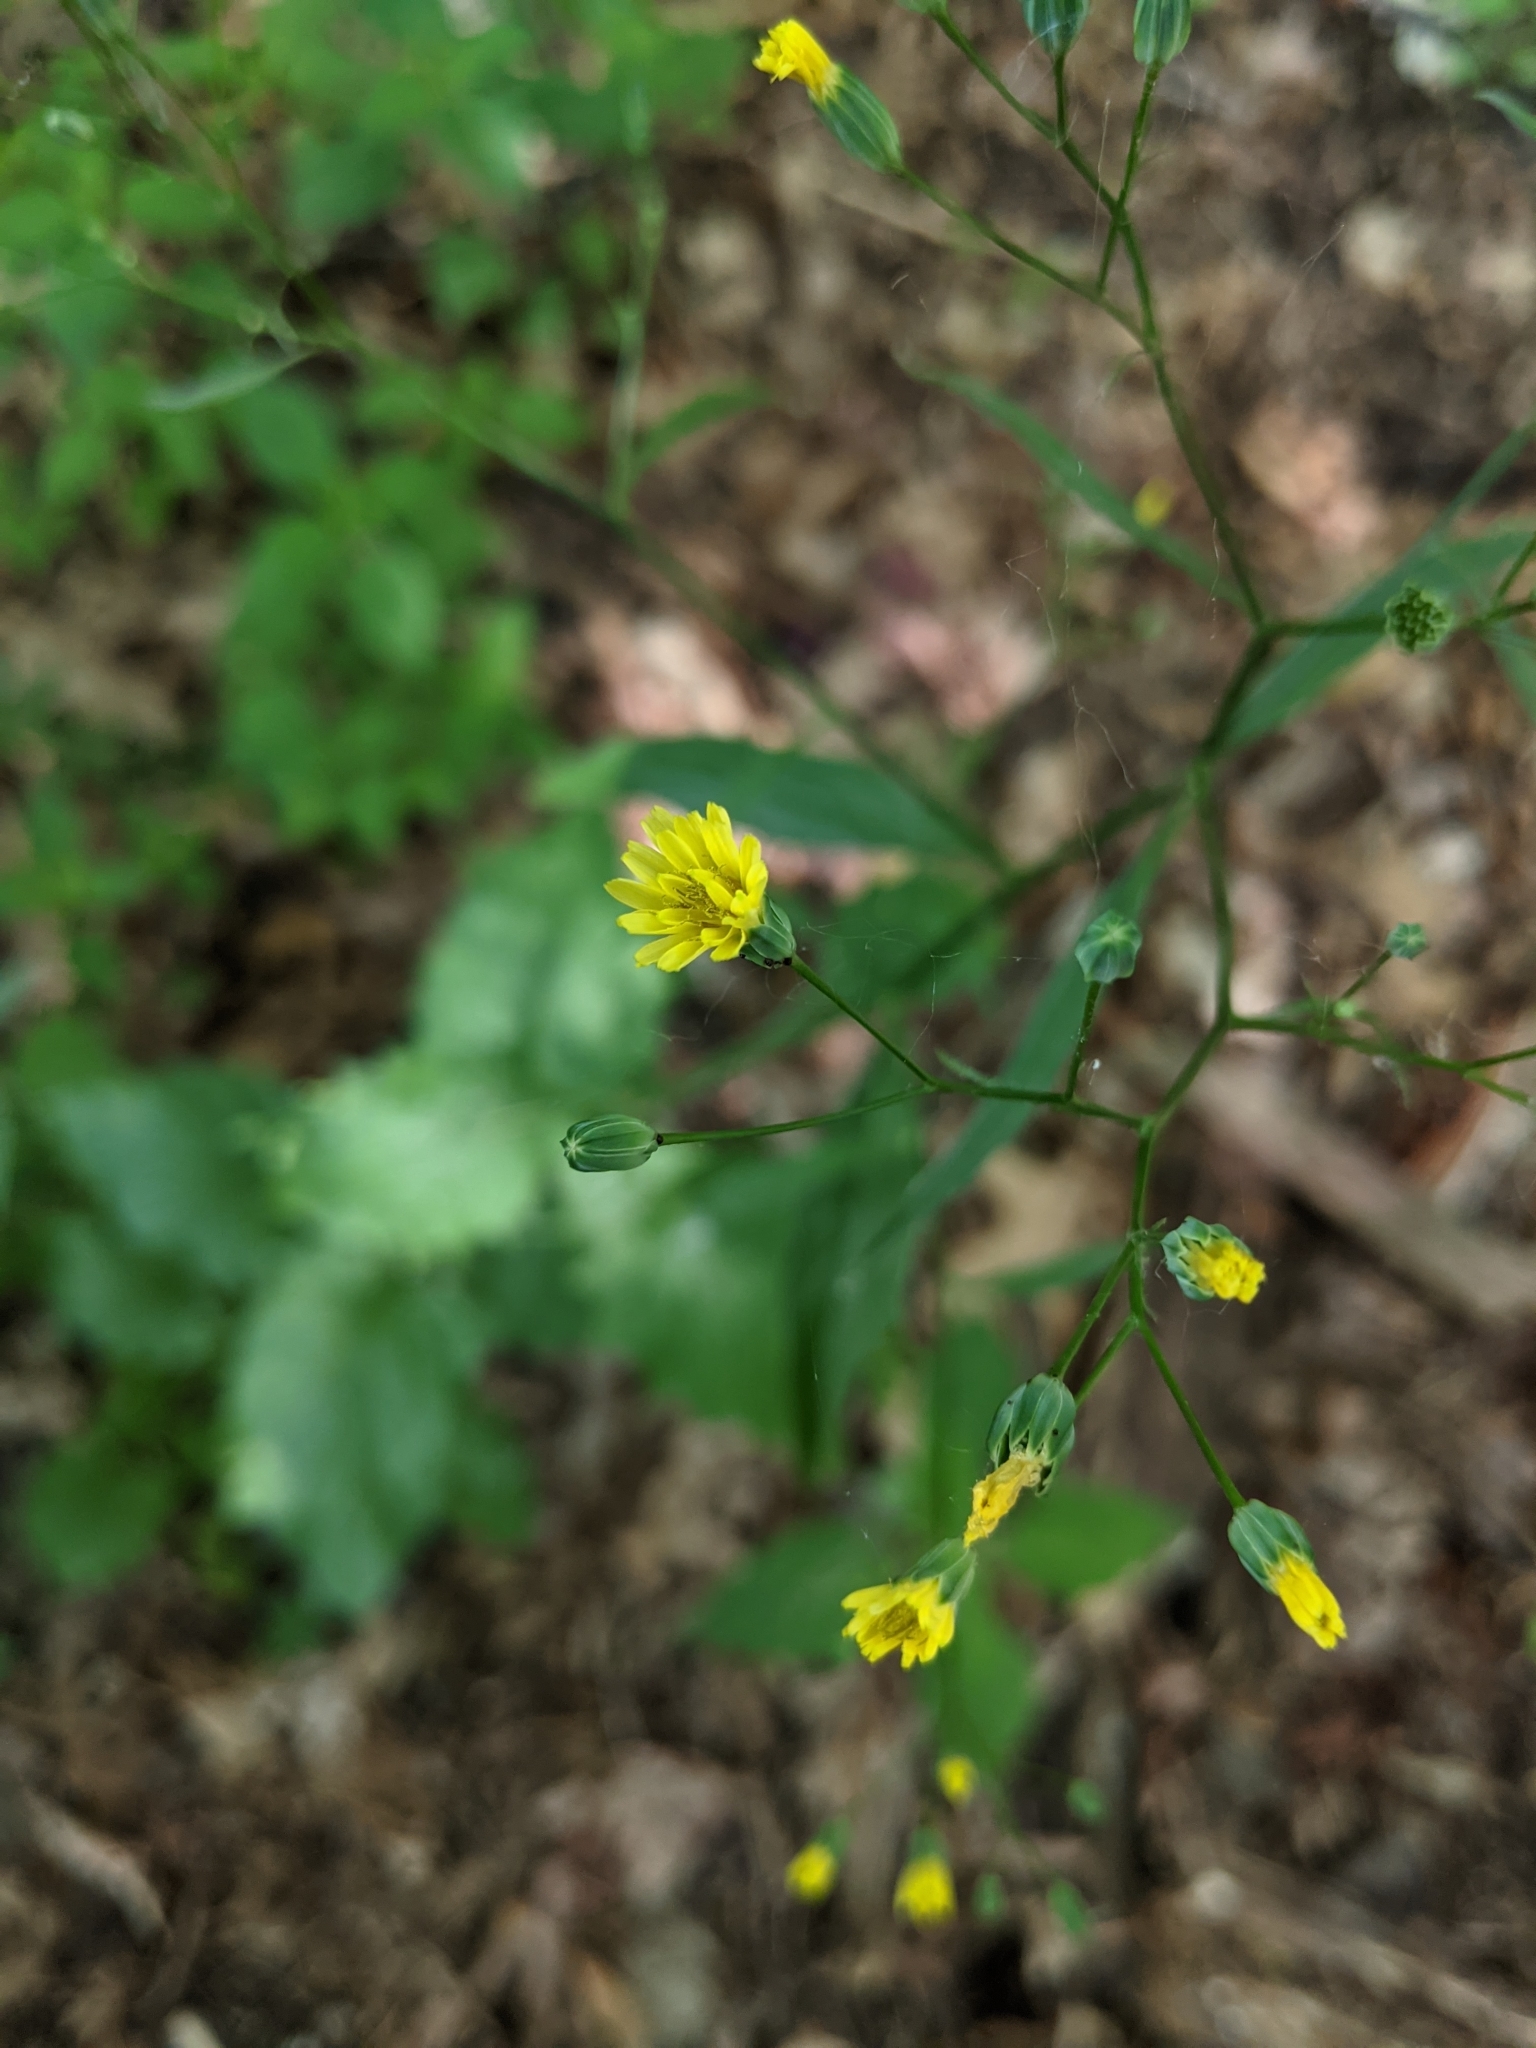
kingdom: Plantae
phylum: Tracheophyta
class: Magnoliopsida
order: Asterales
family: Asteraceae
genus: Lapsana
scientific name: Lapsana communis
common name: Nipplewort
